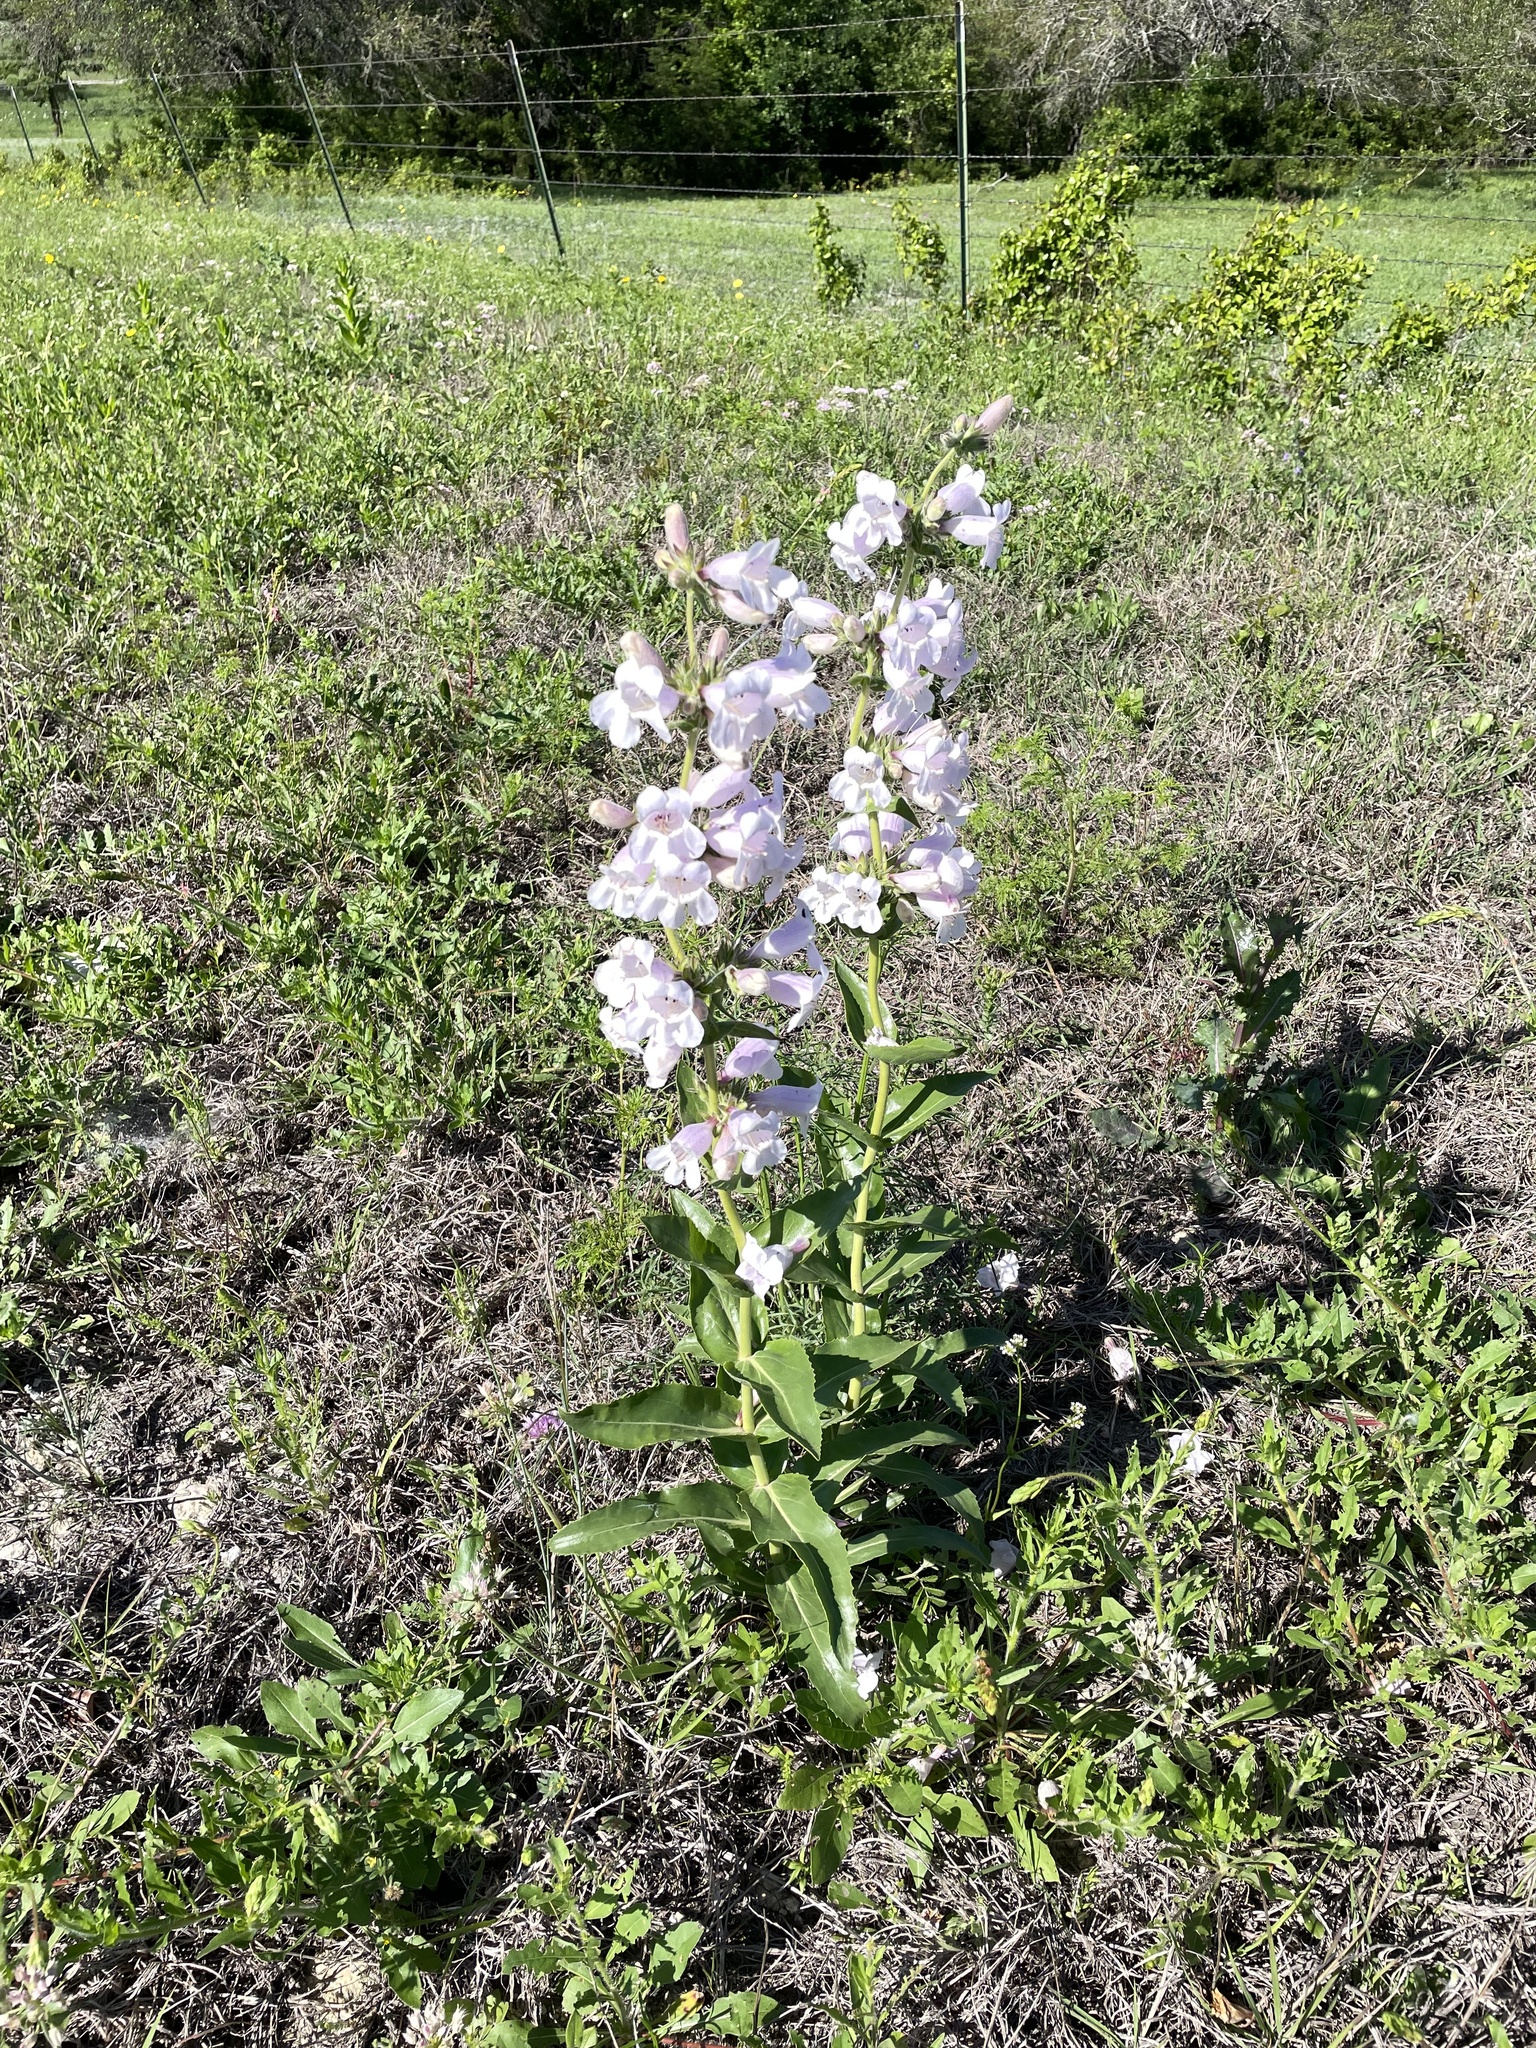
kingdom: Plantae
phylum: Tracheophyta
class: Magnoliopsida
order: Lamiales
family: Plantaginaceae
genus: Penstemon
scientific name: Penstemon cobaea
